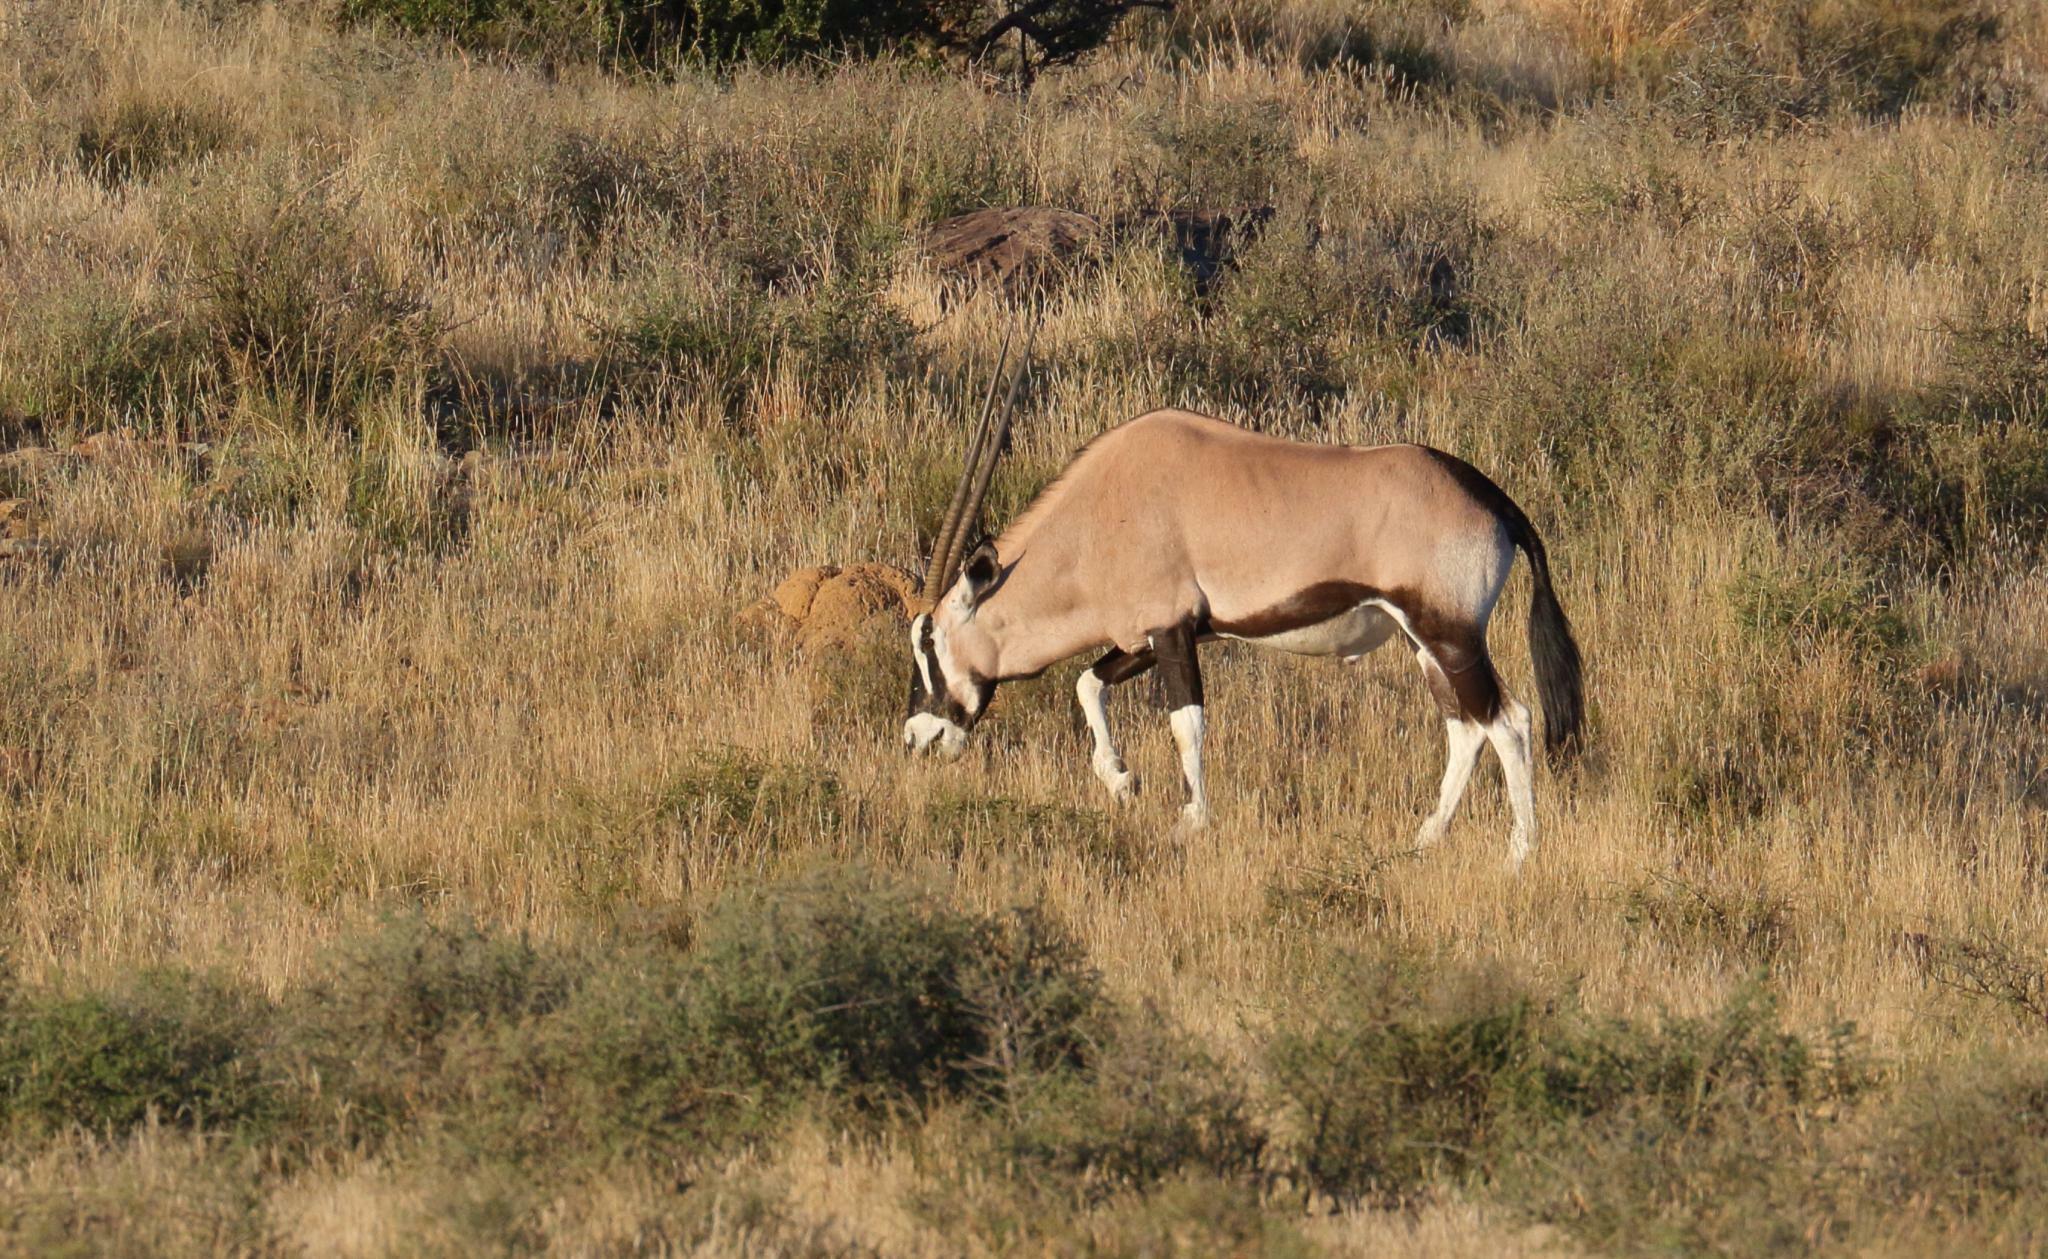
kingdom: Animalia
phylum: Chordata
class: Mammalia
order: Artiodactyla
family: Bovidae
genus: Oryx
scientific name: Oryx gazella
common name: Gemsbok
